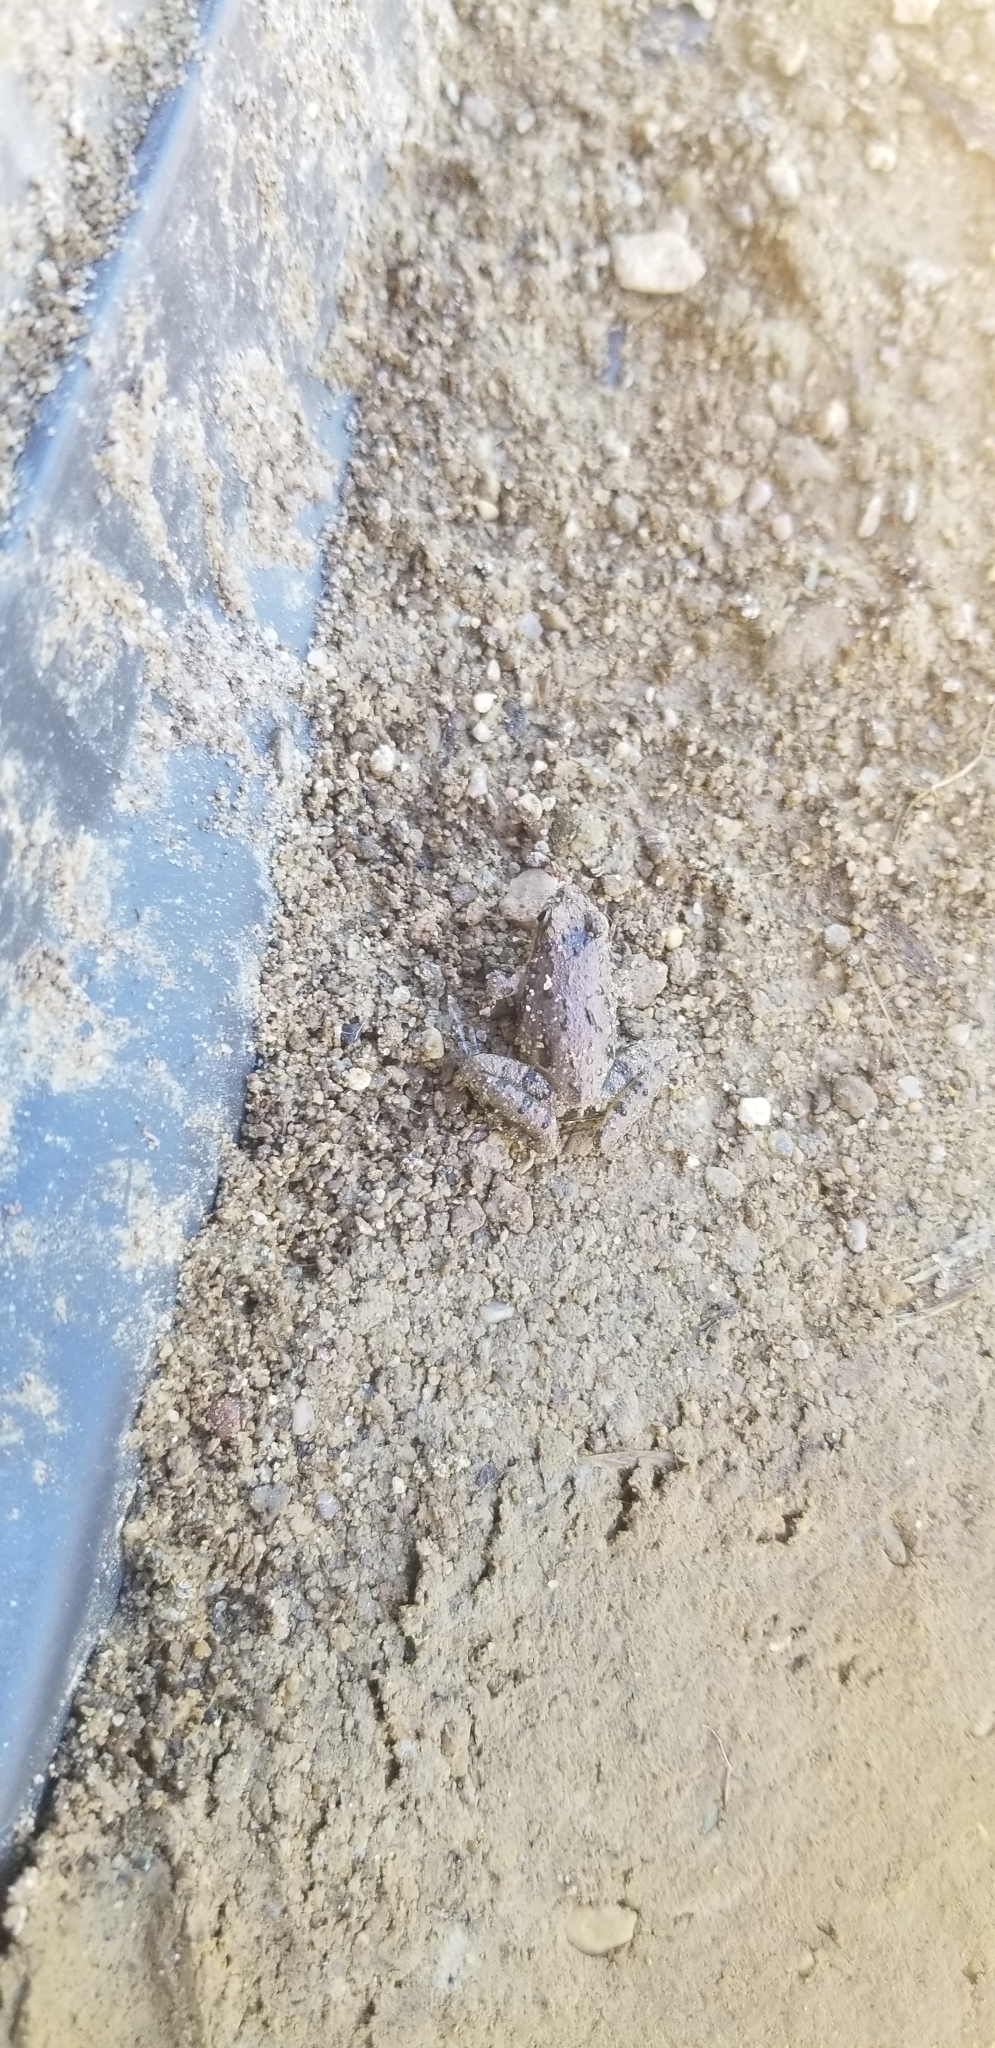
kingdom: Animalia
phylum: Chordata
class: Amphibia
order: Anura
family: Hylidae
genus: Acris
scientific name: Acris blanchardi
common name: Blanchard's cricket frog
